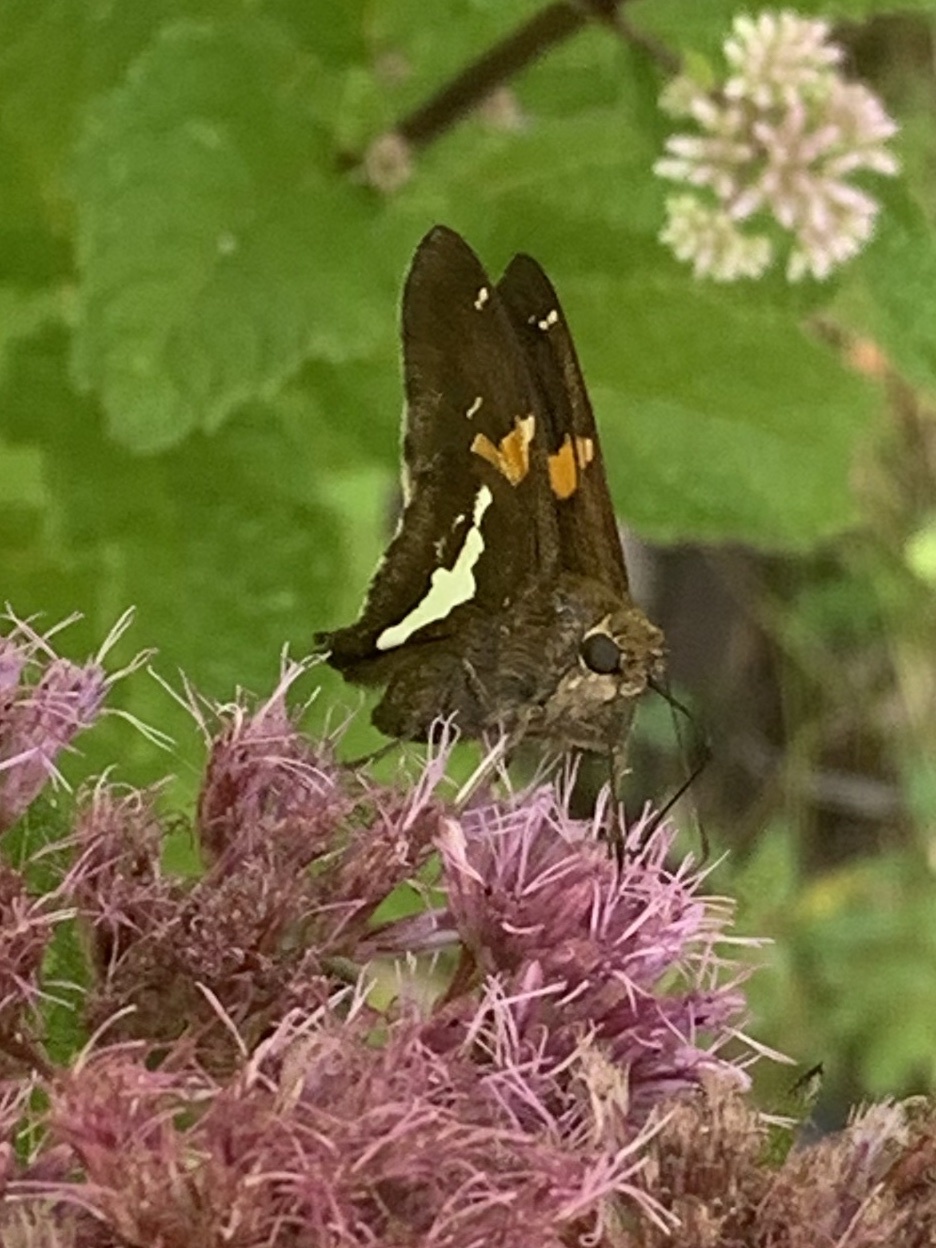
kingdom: Animalia
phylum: Arthropoda
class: Insecta
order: Lepidoptera
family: Hesperiidae
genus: Epargyreus
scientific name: Epargyreus clarus
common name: Silver-spotted skipper
